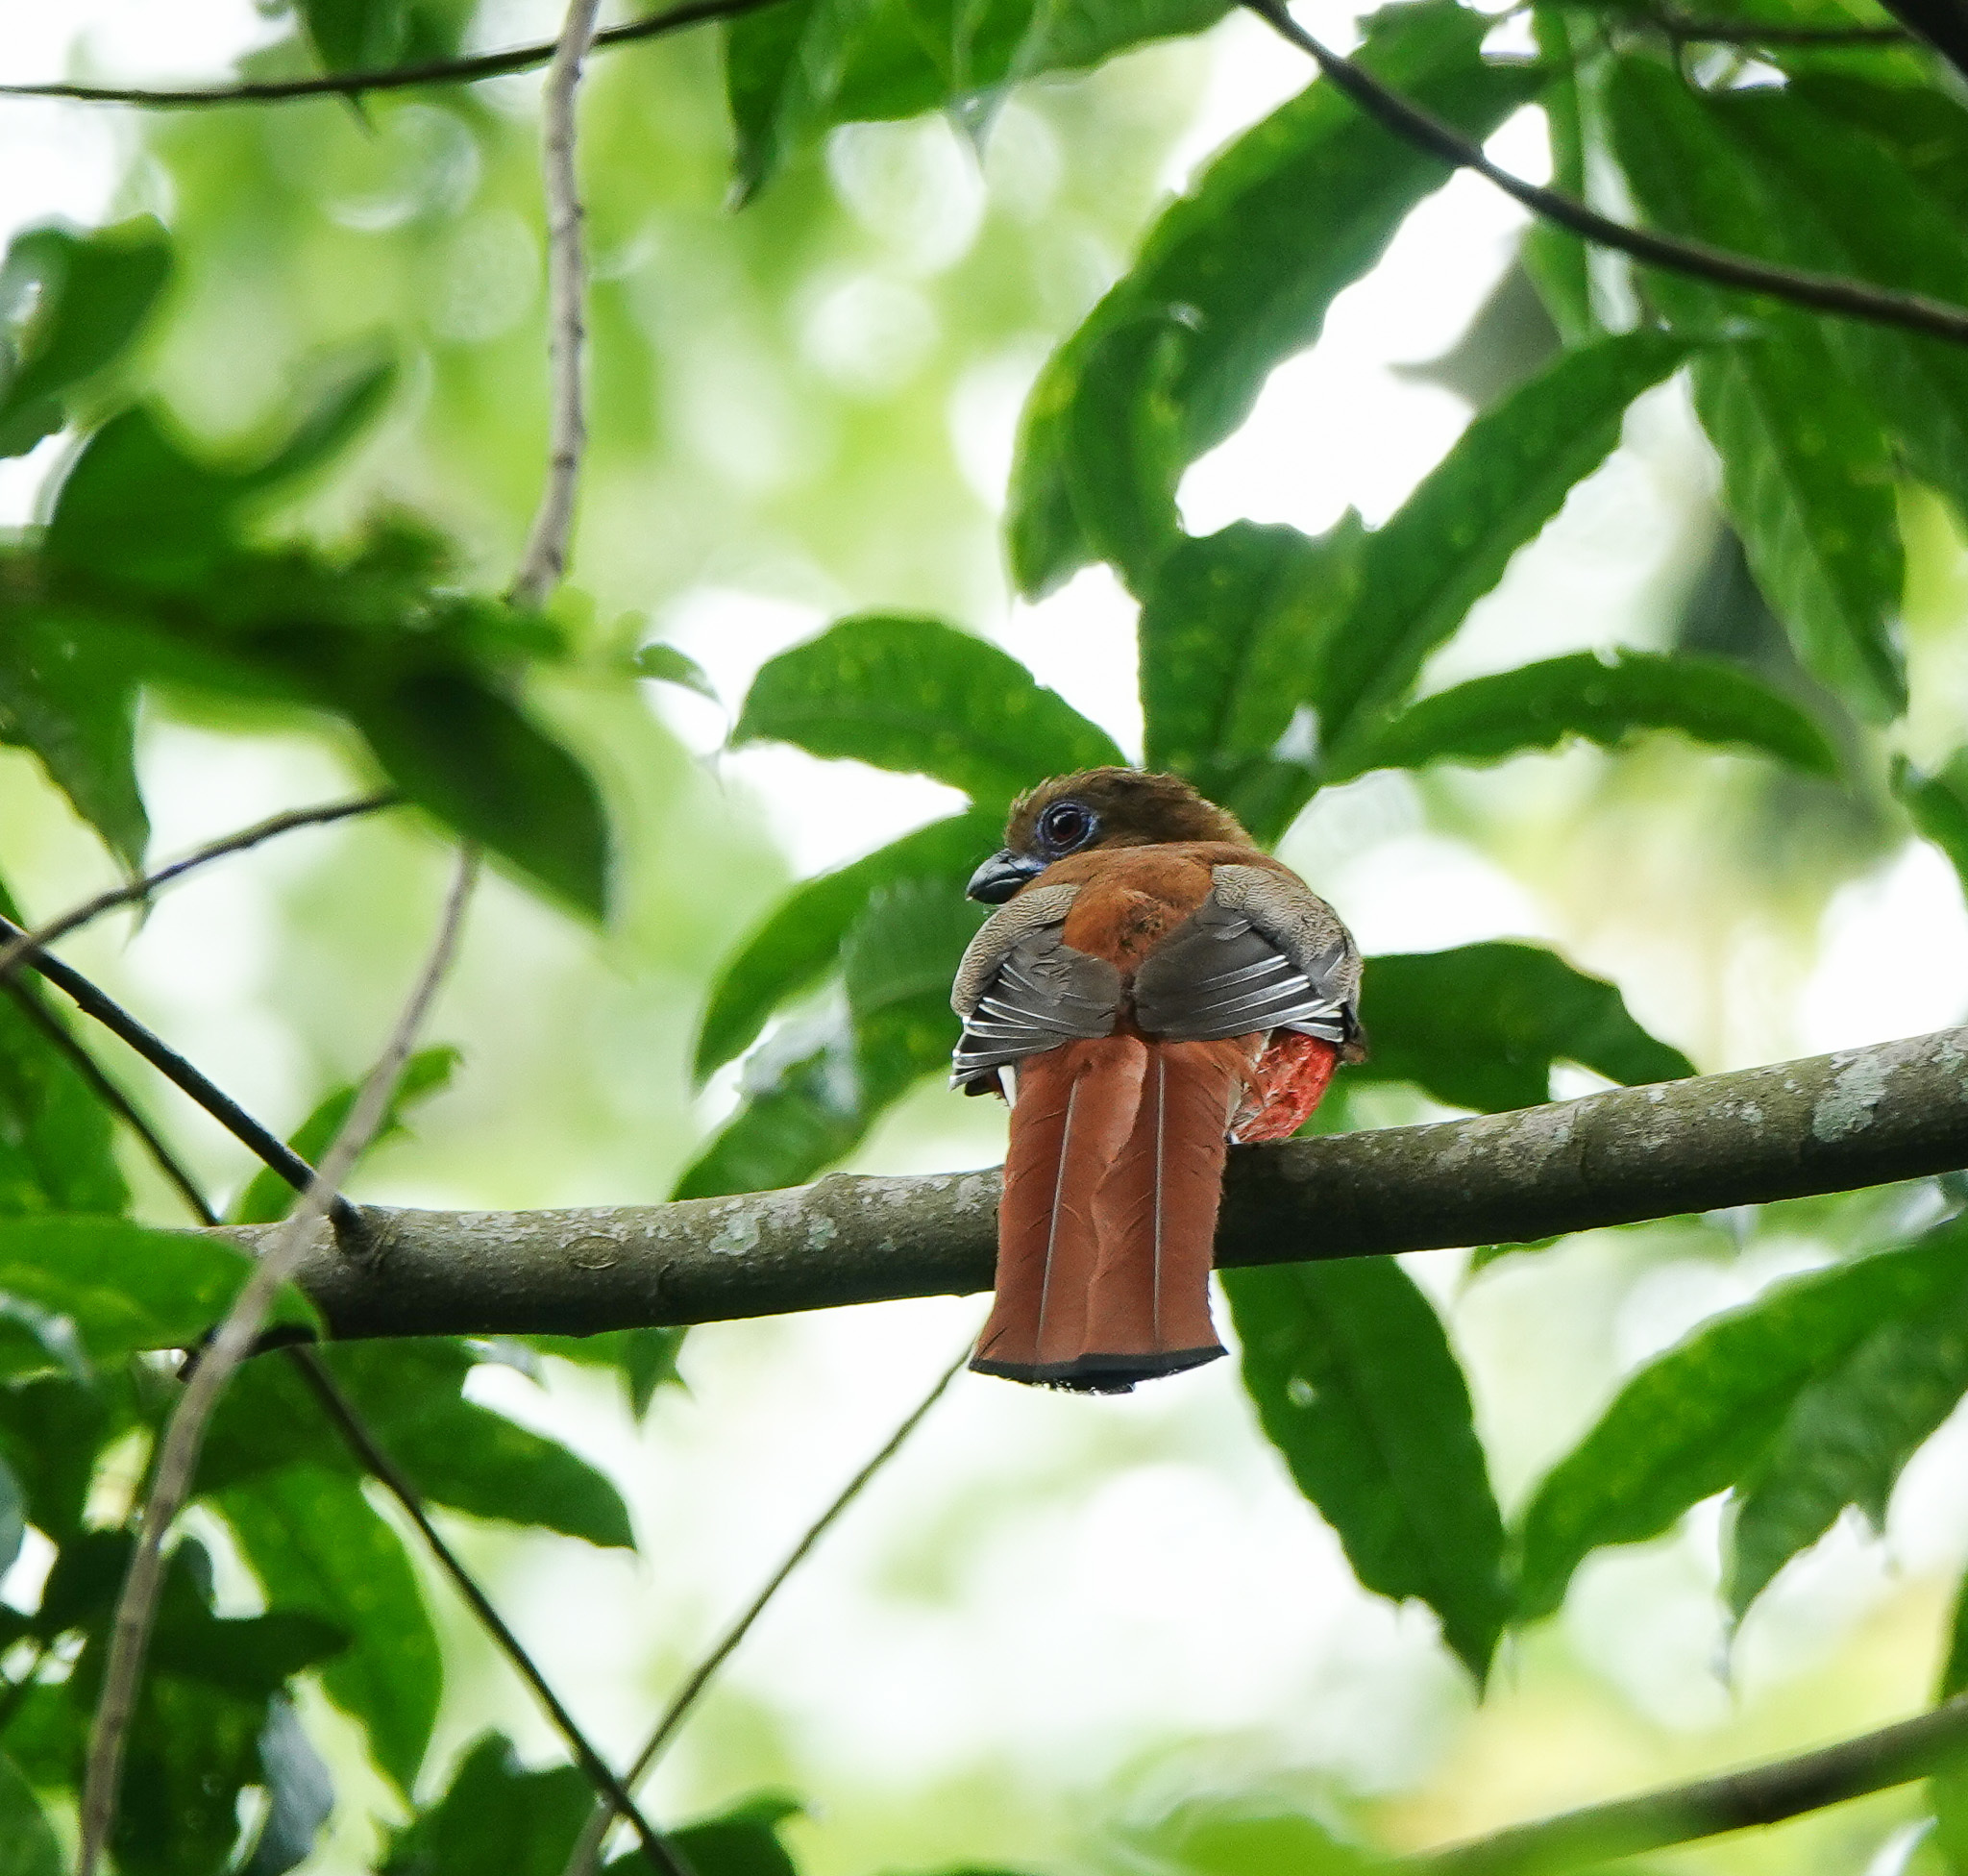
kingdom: Animalia
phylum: Chordata
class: Aves
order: Trogoniformes
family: Trogonidae
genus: Harpactes
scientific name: Harpactes erythrocephalus
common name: Red-headed trogon
